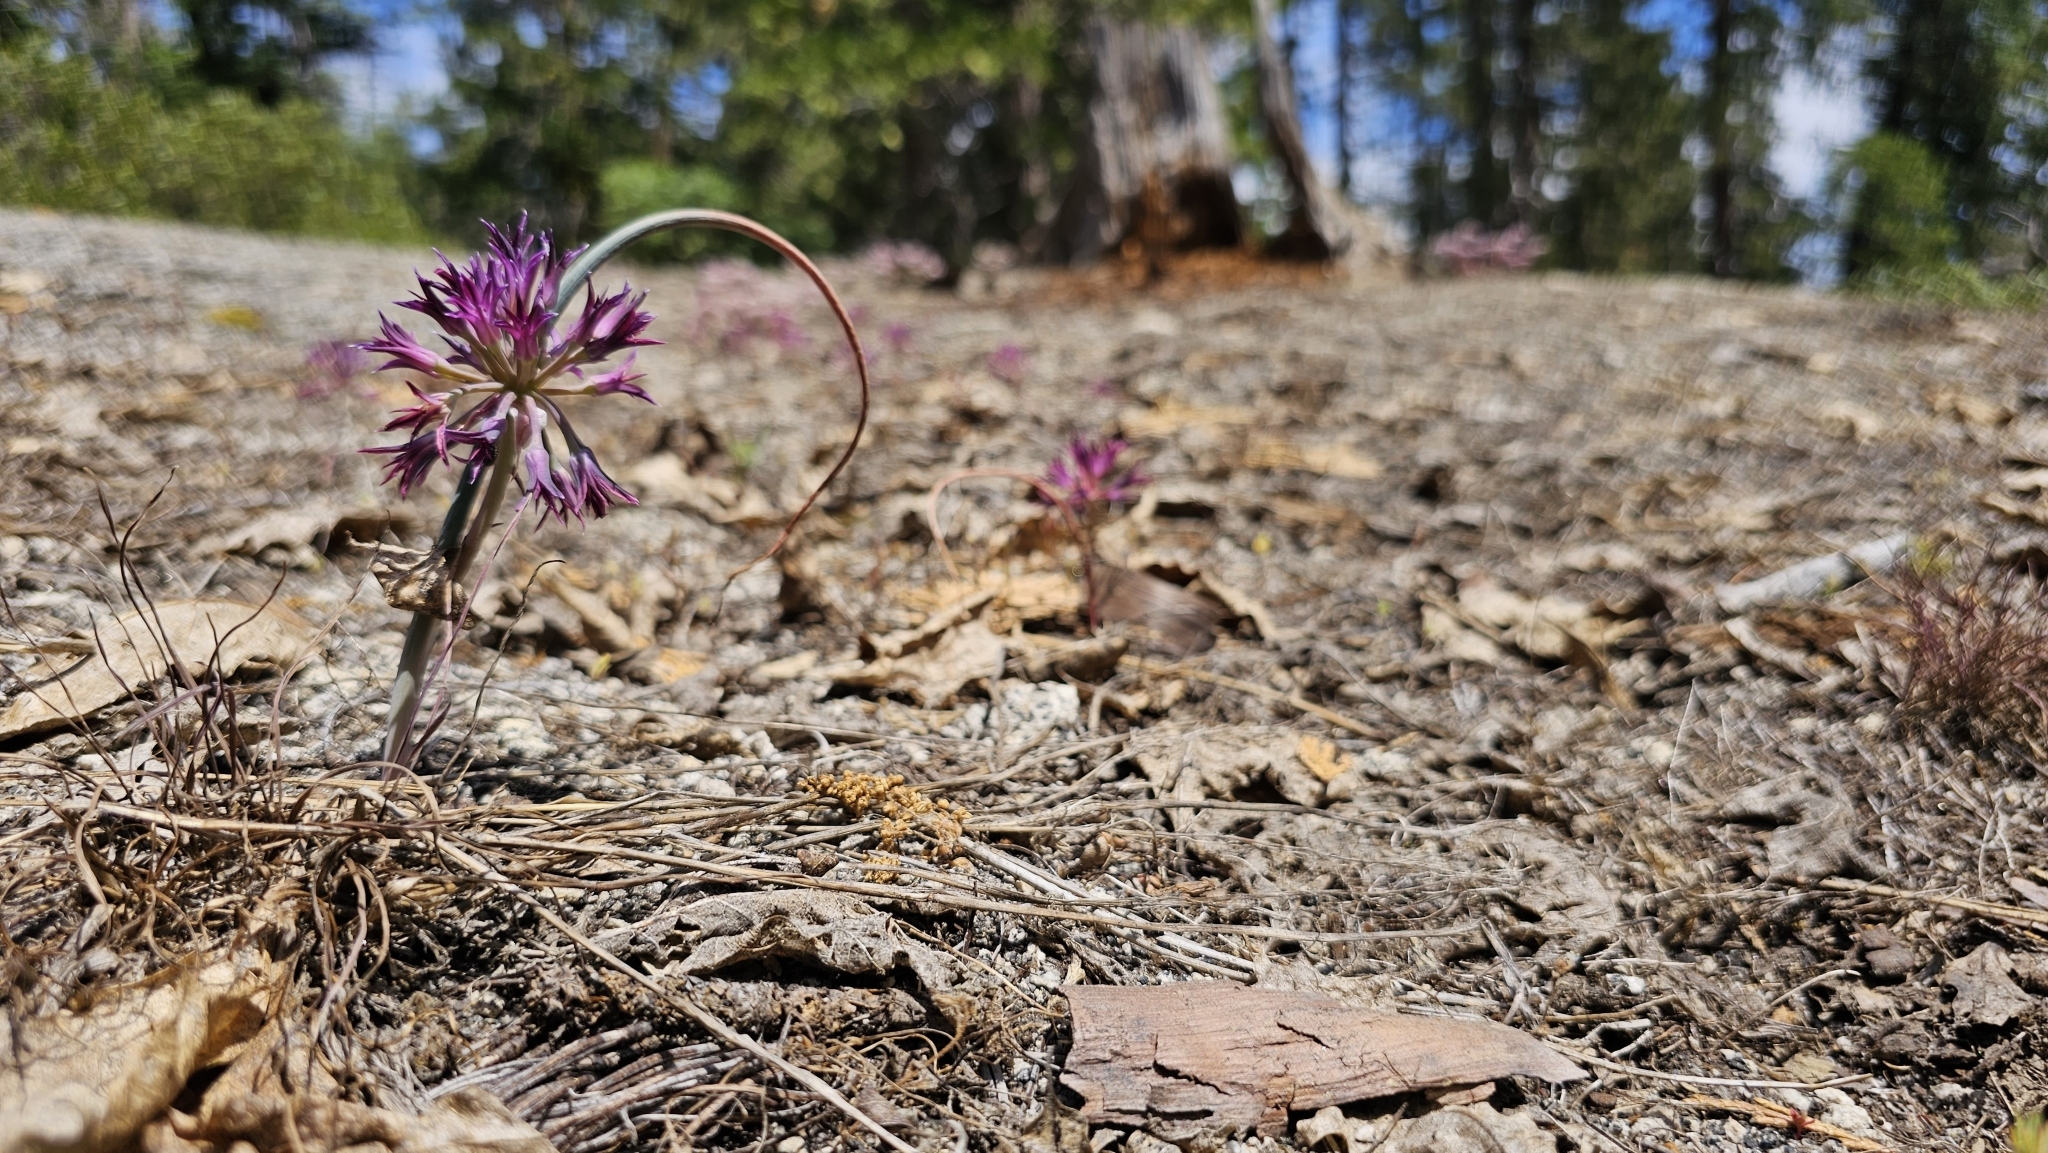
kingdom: Plantae
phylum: Tracheophyta
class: Liliopsida
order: Asparagales
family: Amaryllidaceae
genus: Allium
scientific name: Allium abramsii
